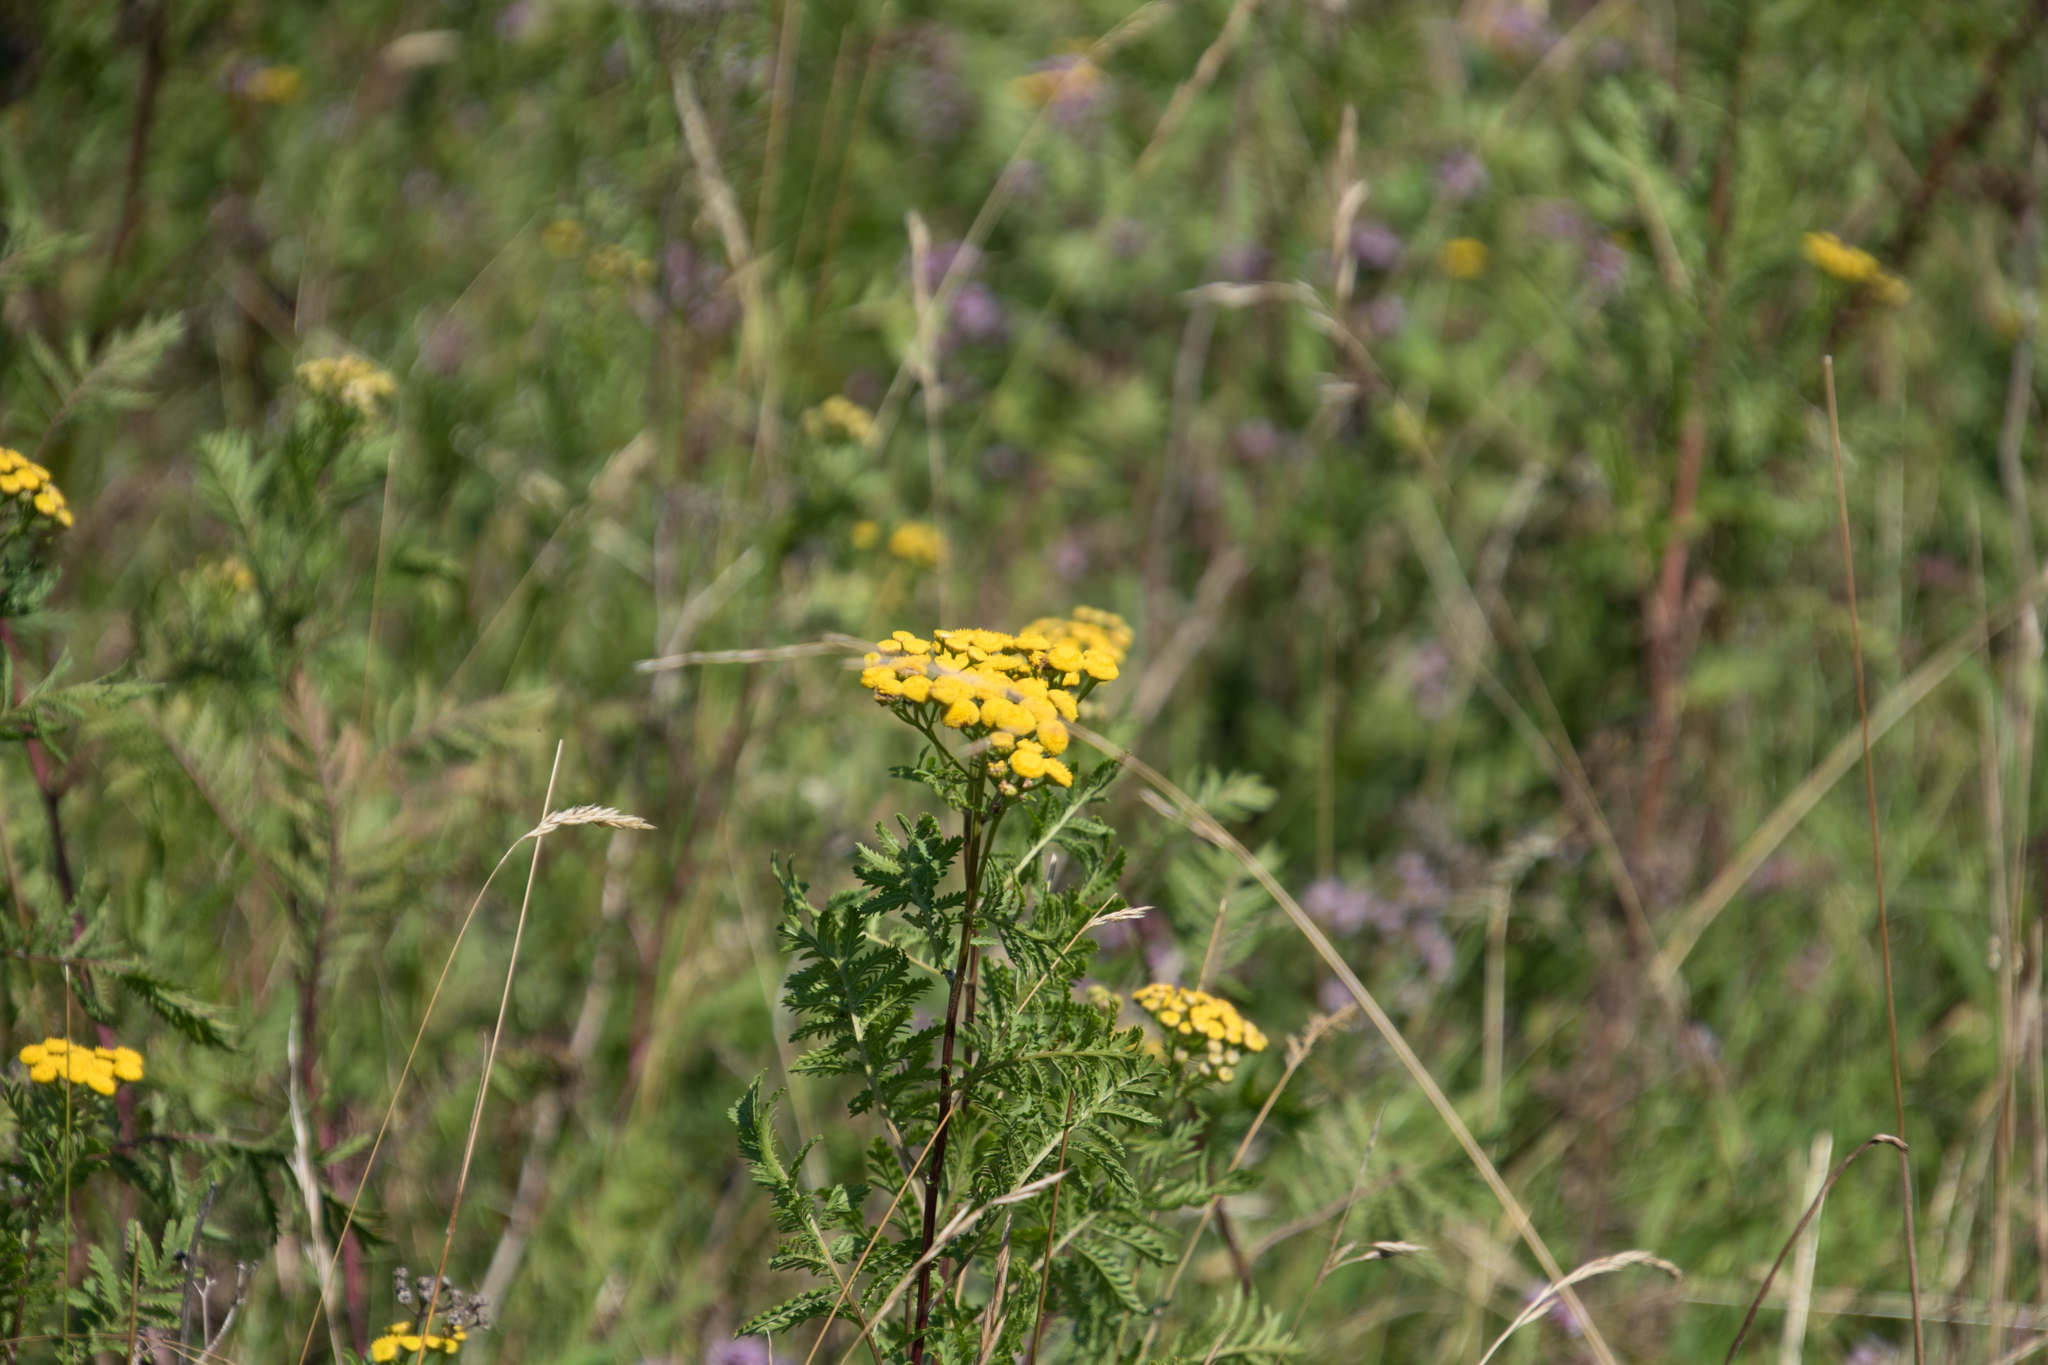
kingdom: Plantae
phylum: Tracheophyta
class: Magnoliopsida
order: Asterales
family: Asteraceae
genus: Tanacetum
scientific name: Tanacetum vulgare
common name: Common tansy
